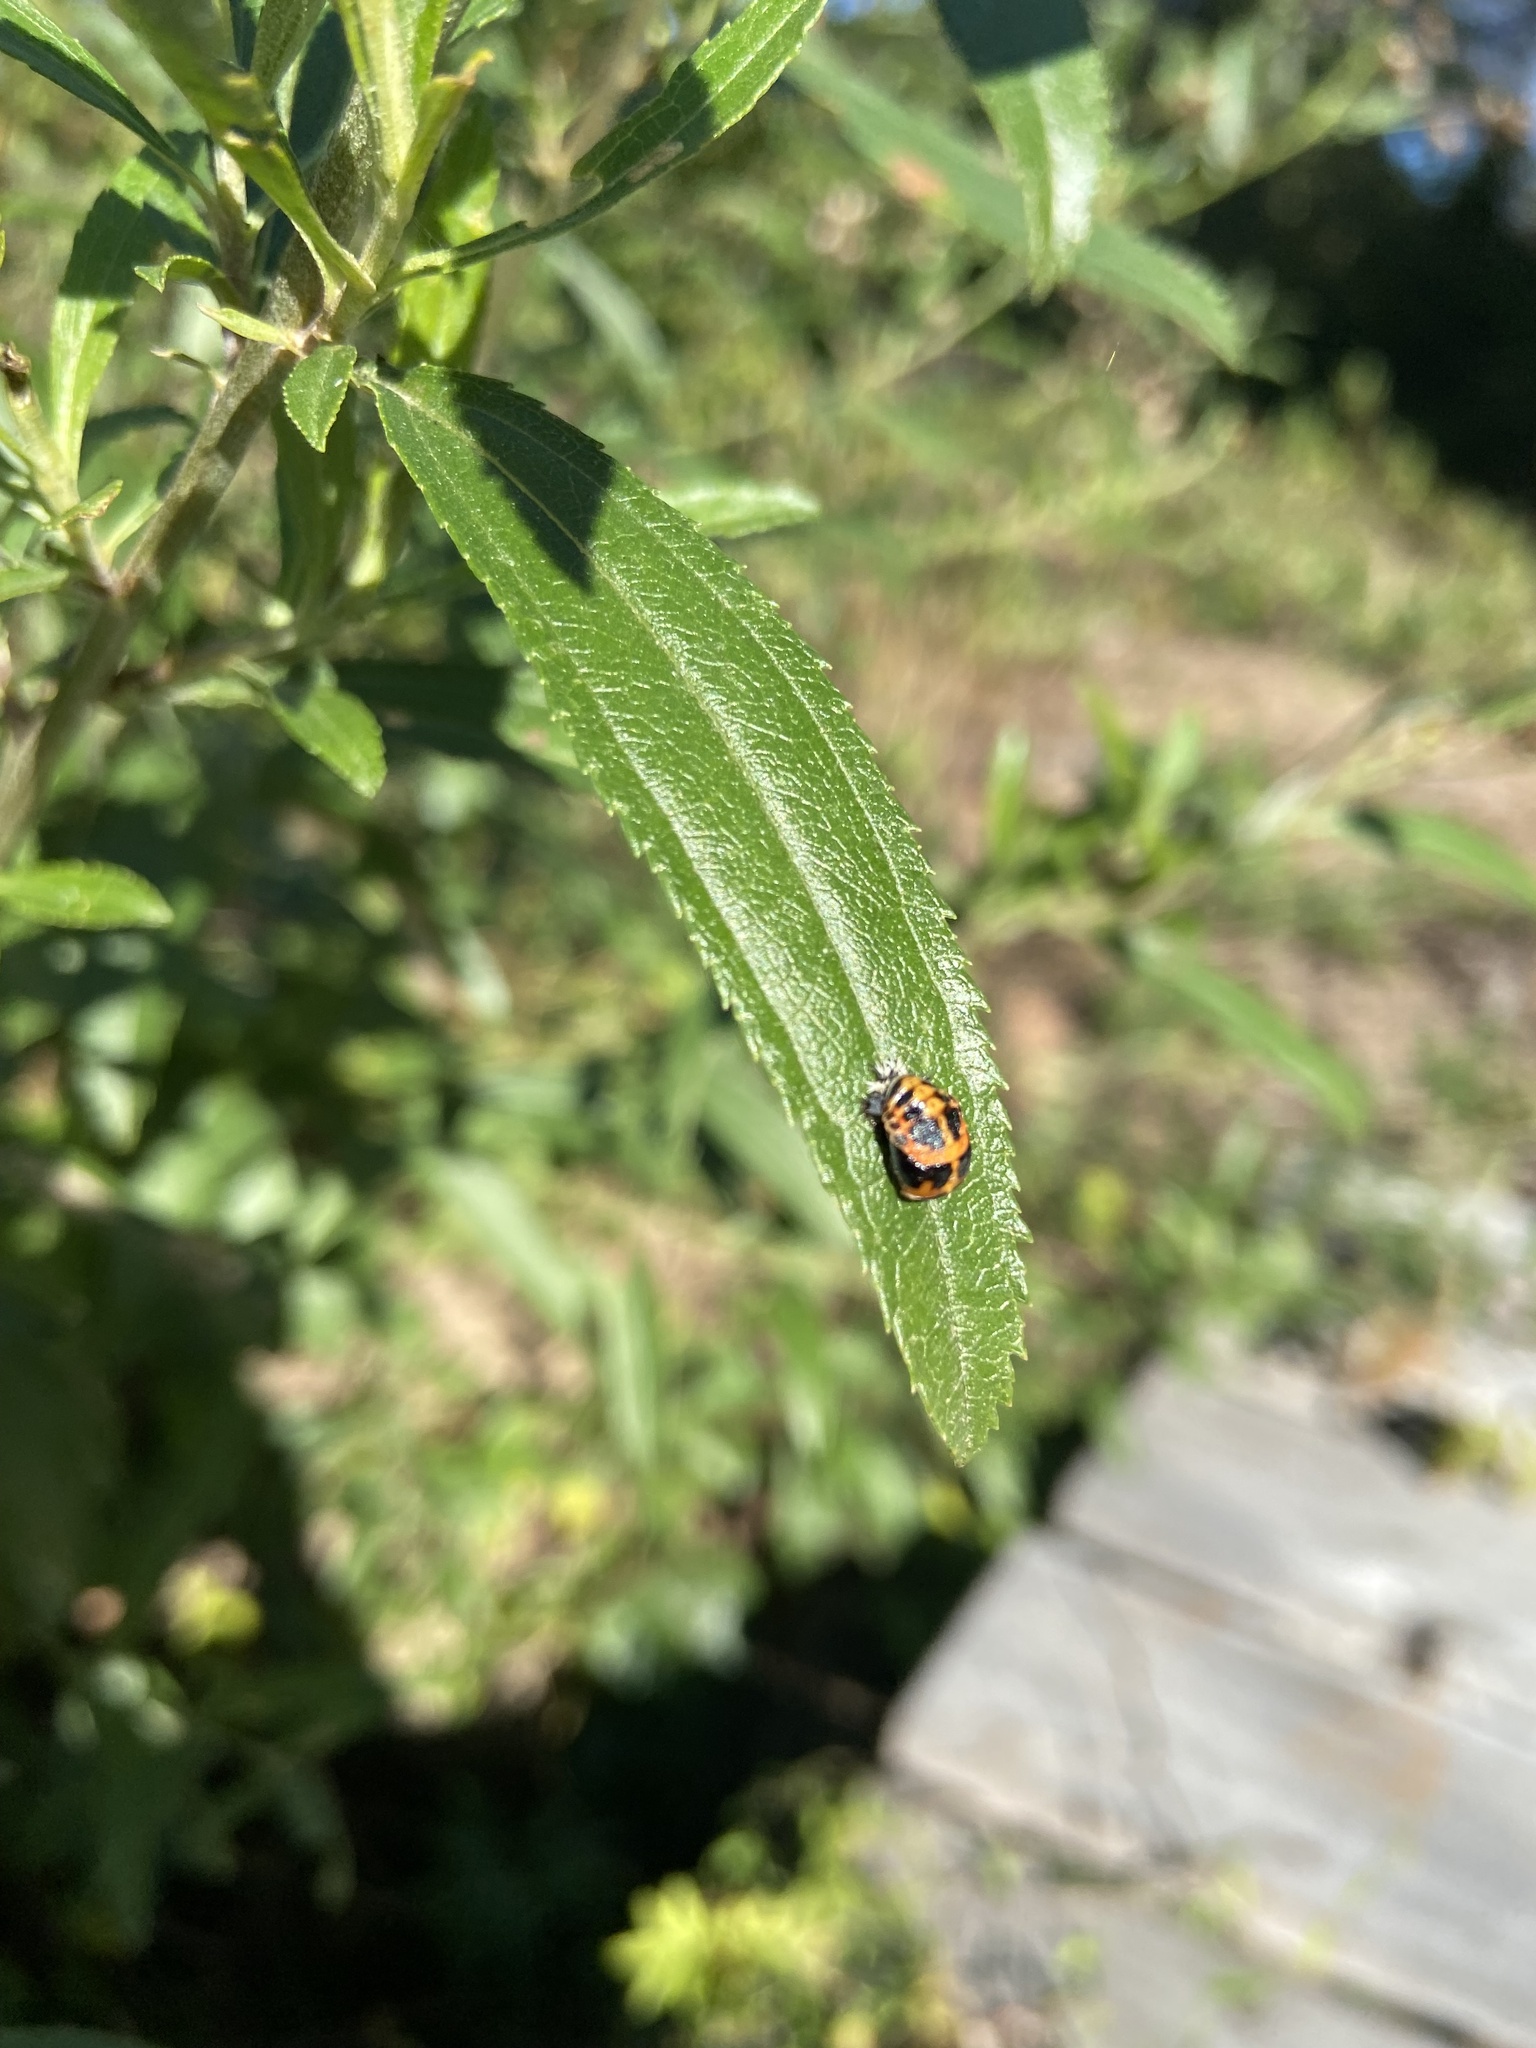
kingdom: Animalia
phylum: Arthropoda
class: Insecta
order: Coleoptera
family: Coccinellidae
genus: Harmonia
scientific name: Harmonia axyridis
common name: Harlequin ladybird
